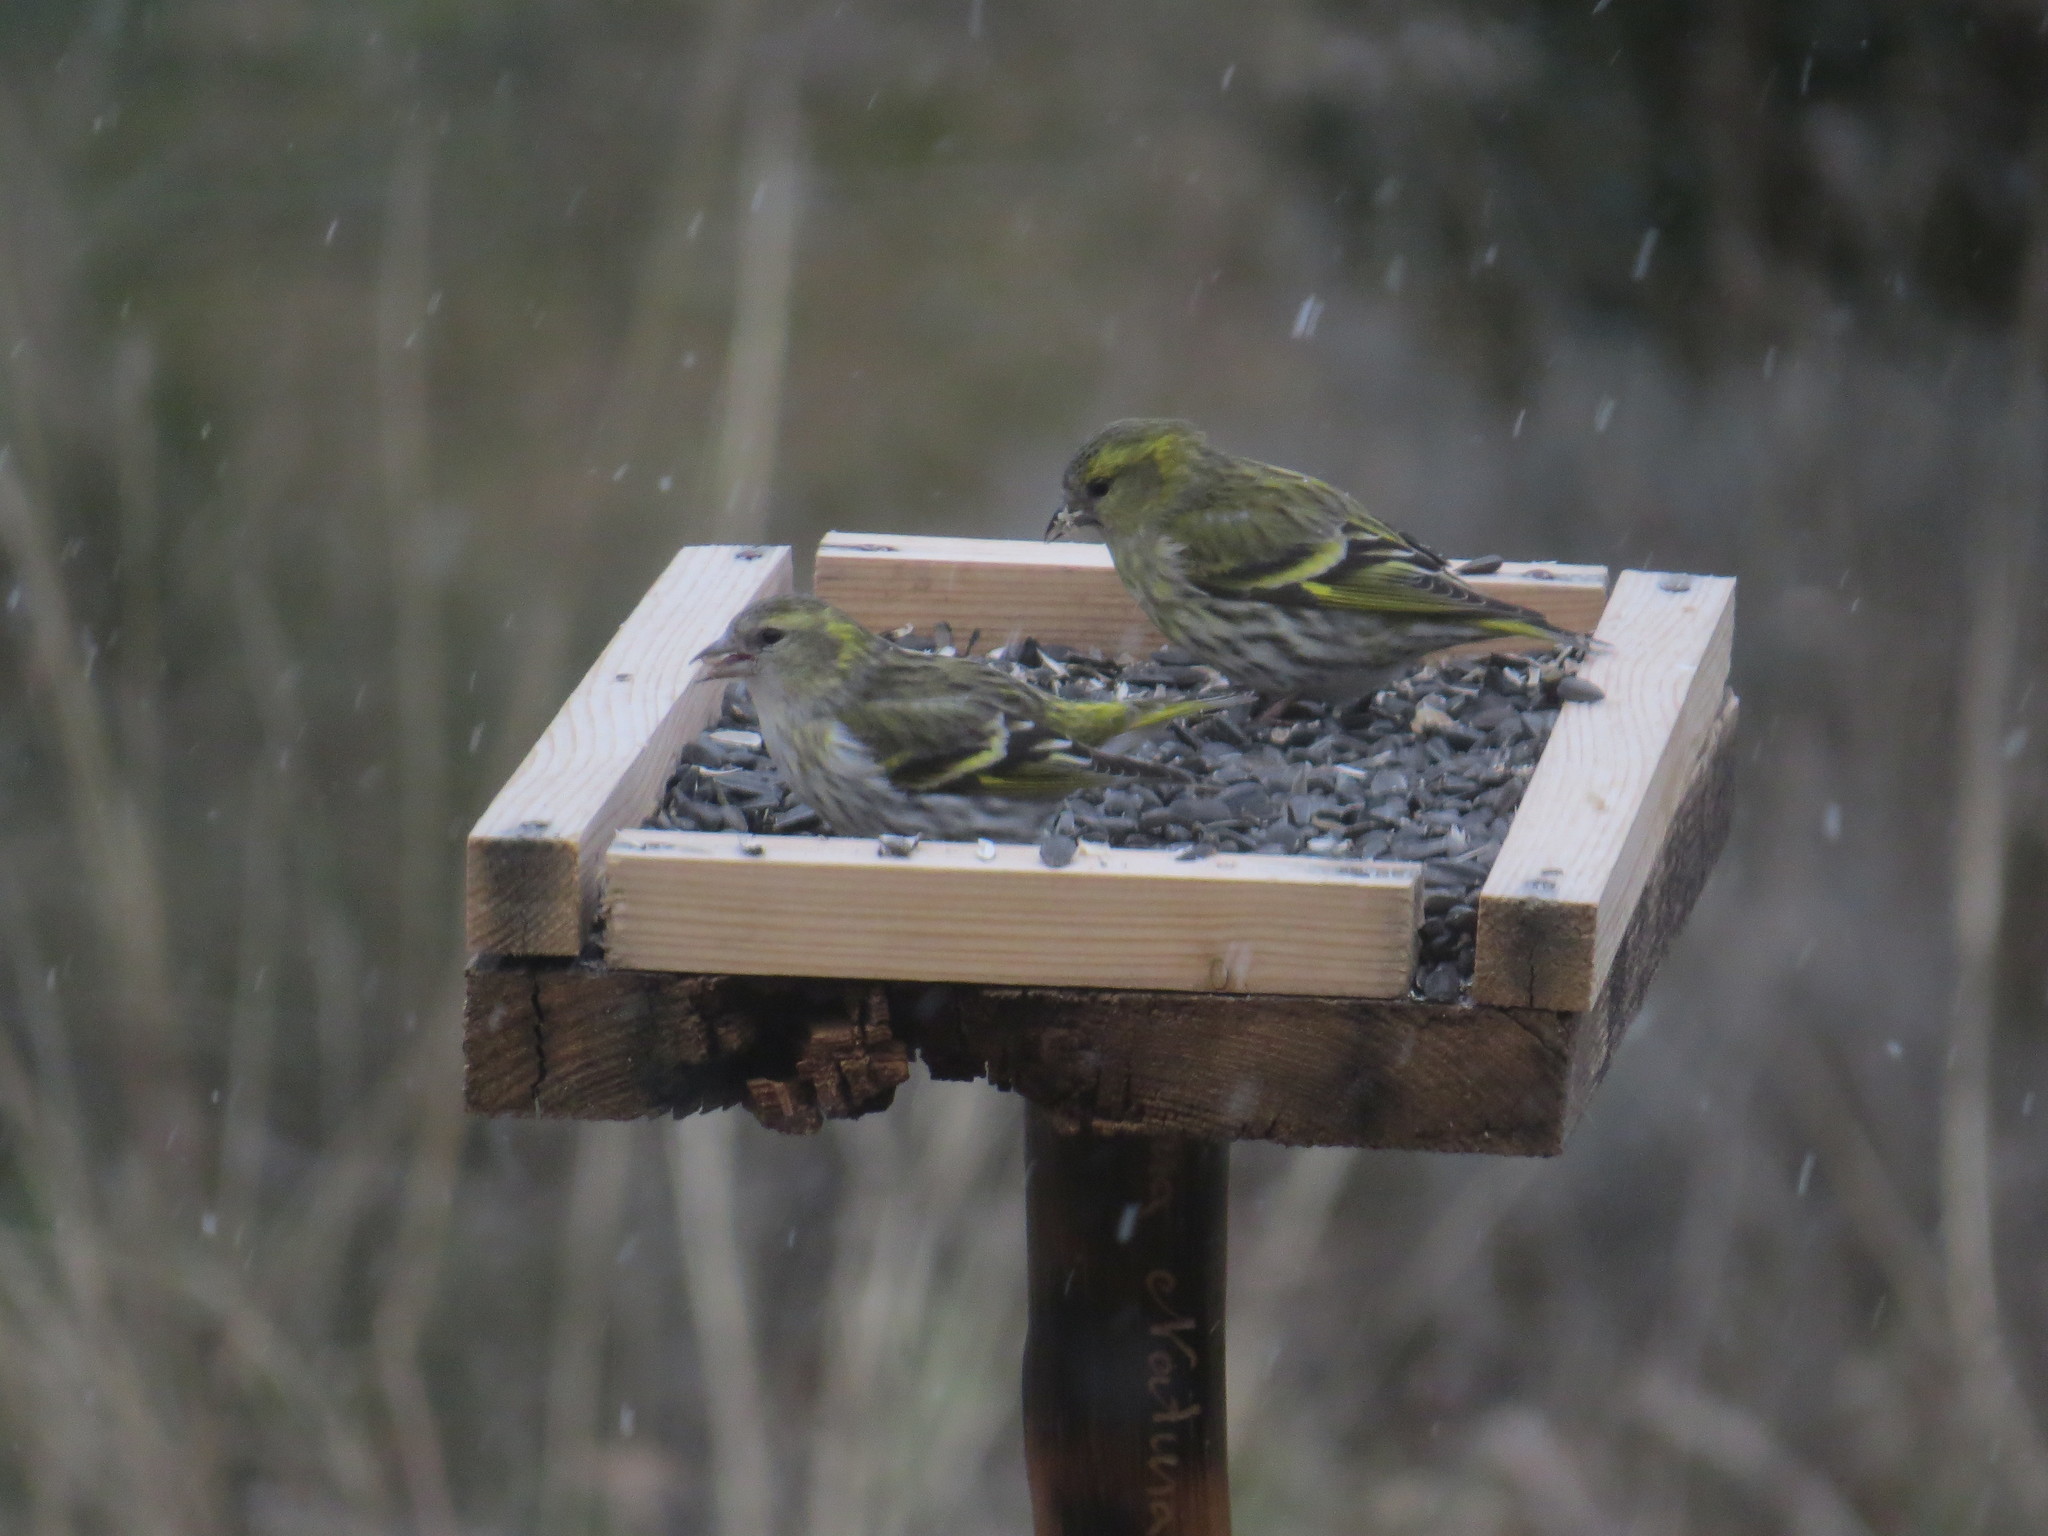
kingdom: Animalia
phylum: Chordata
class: Aves
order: Passeriformes
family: Fringillidae
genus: Spinus
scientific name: Spinus spinus
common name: Eurasian siskin
